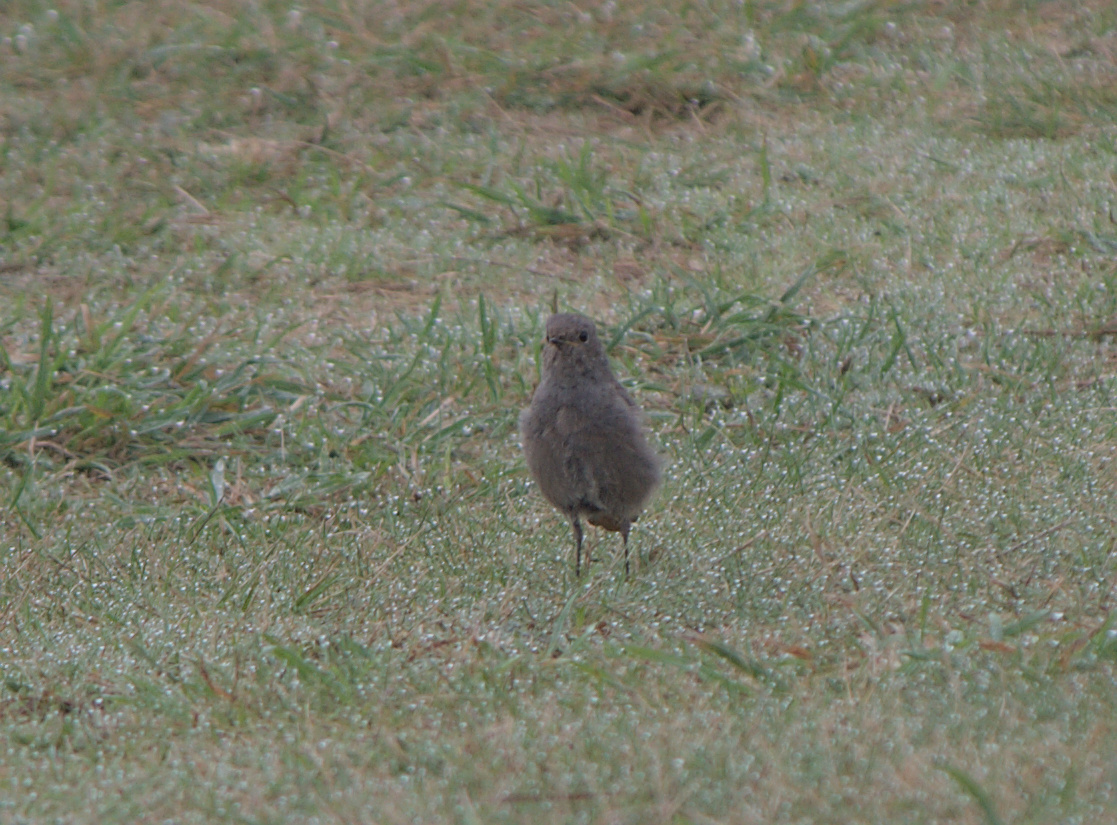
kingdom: Animalia
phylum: Chordata
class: Aves
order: Passeriformes
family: Muscicapidae
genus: Phoenicurus
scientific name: Phoenicurus ochruros
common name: Black redstart
